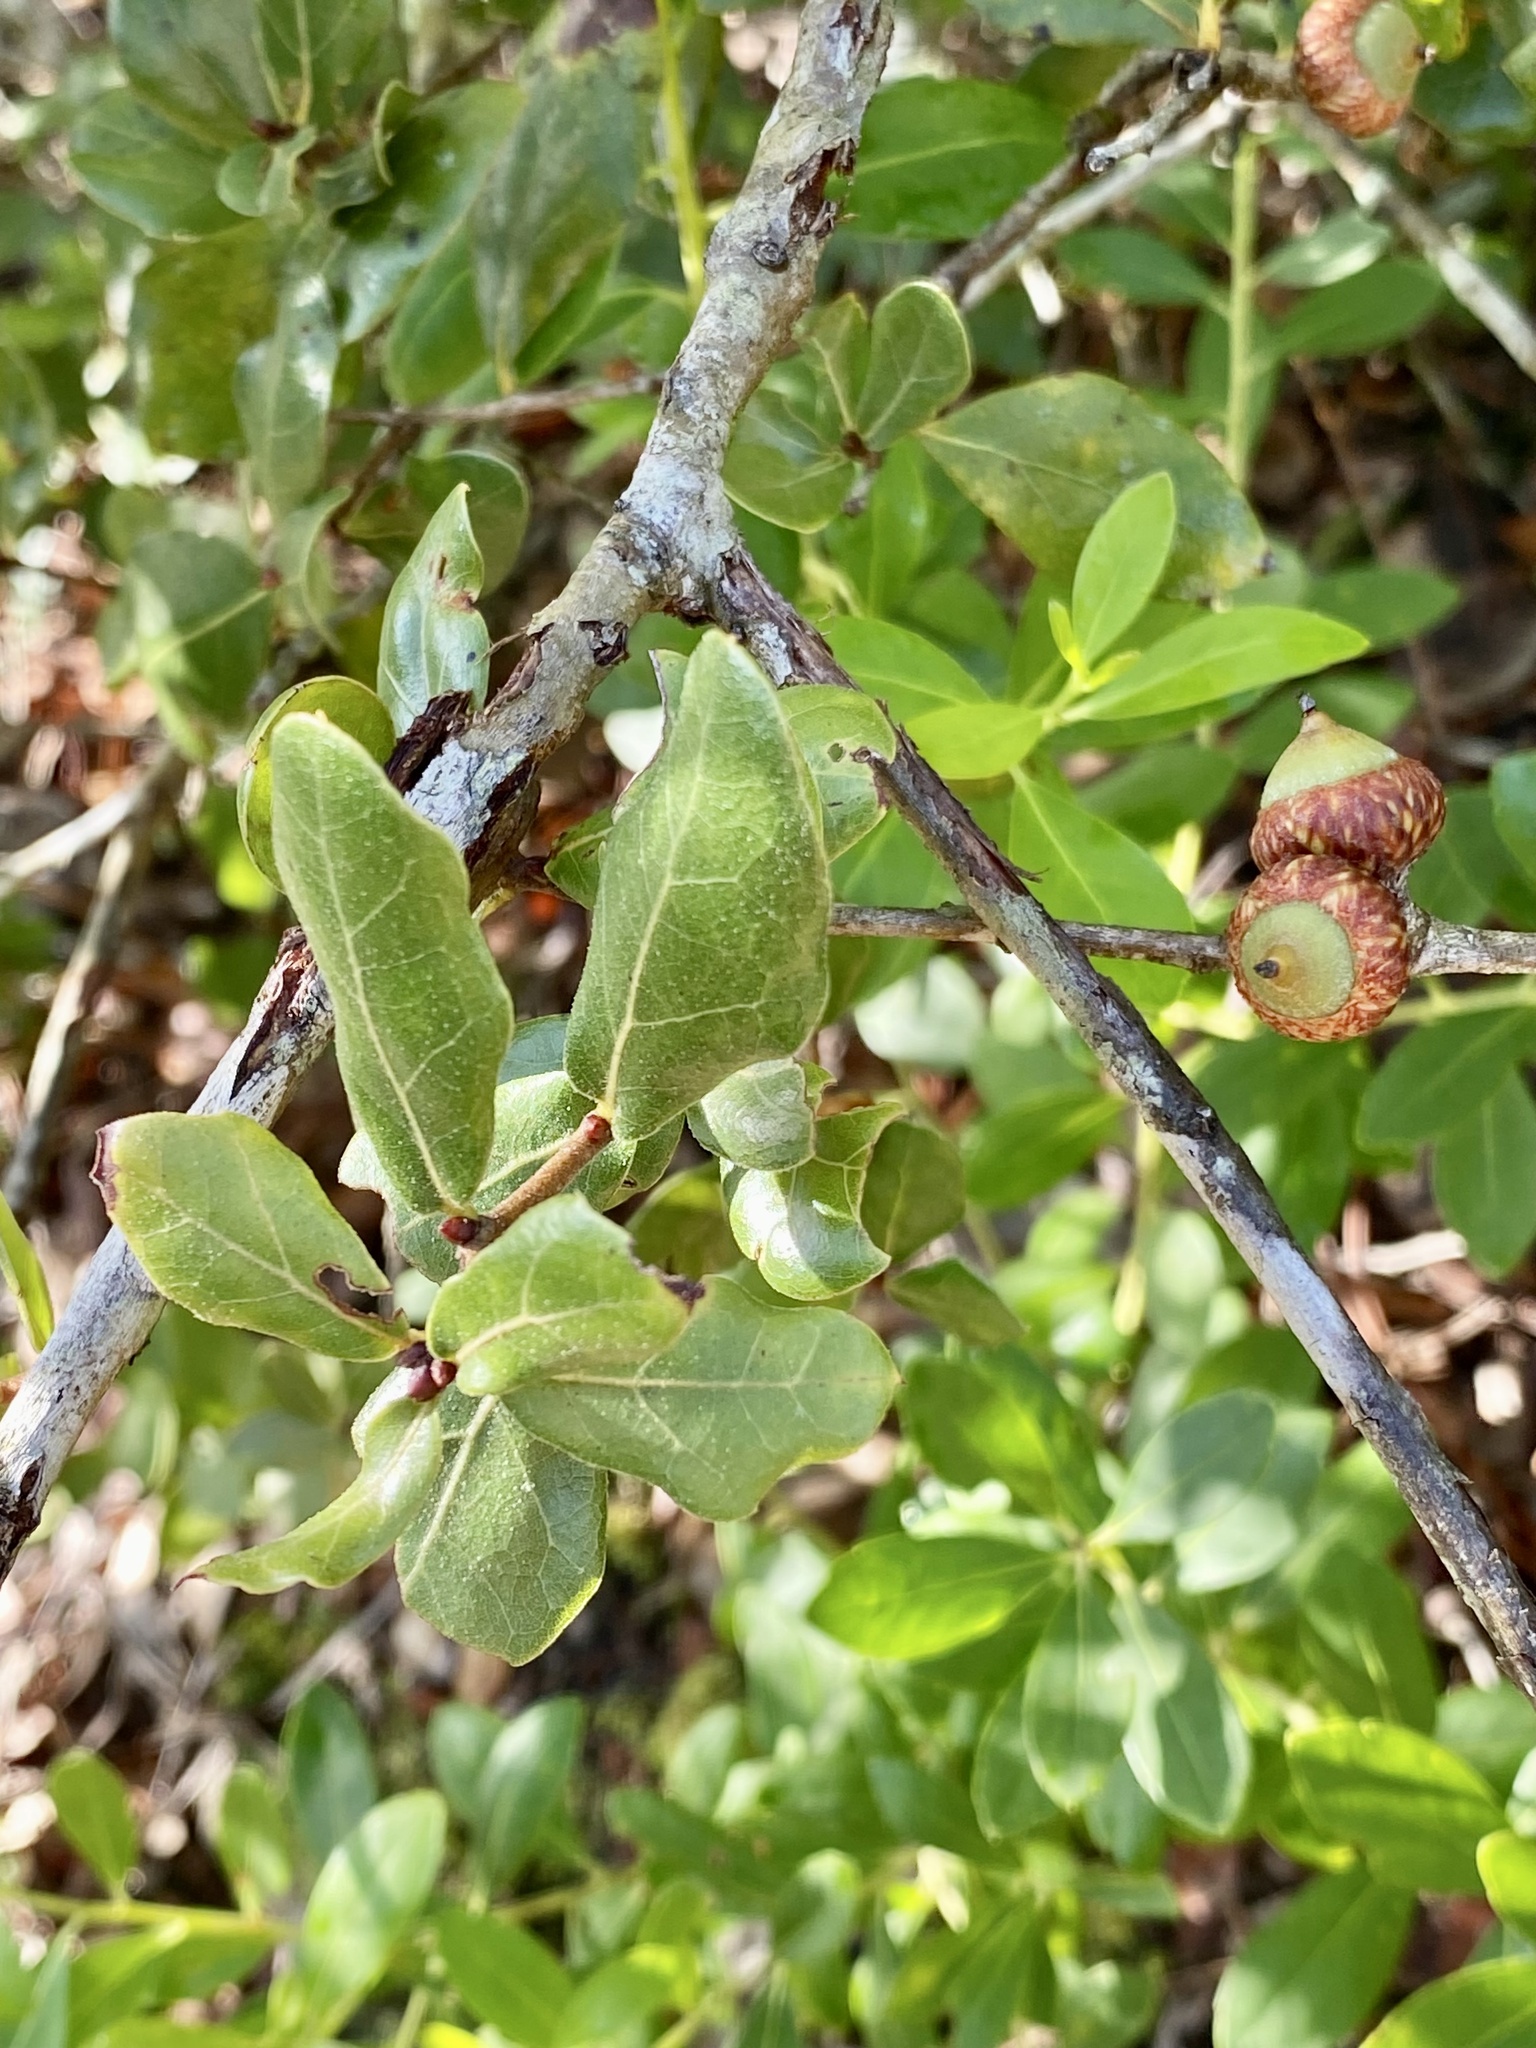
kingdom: Plantae
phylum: Tracheophyta
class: Magnoliopsida
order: Fagales
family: Fagaceae
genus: Quercus
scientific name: Quercus myrtifolia
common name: Myrtle oak
